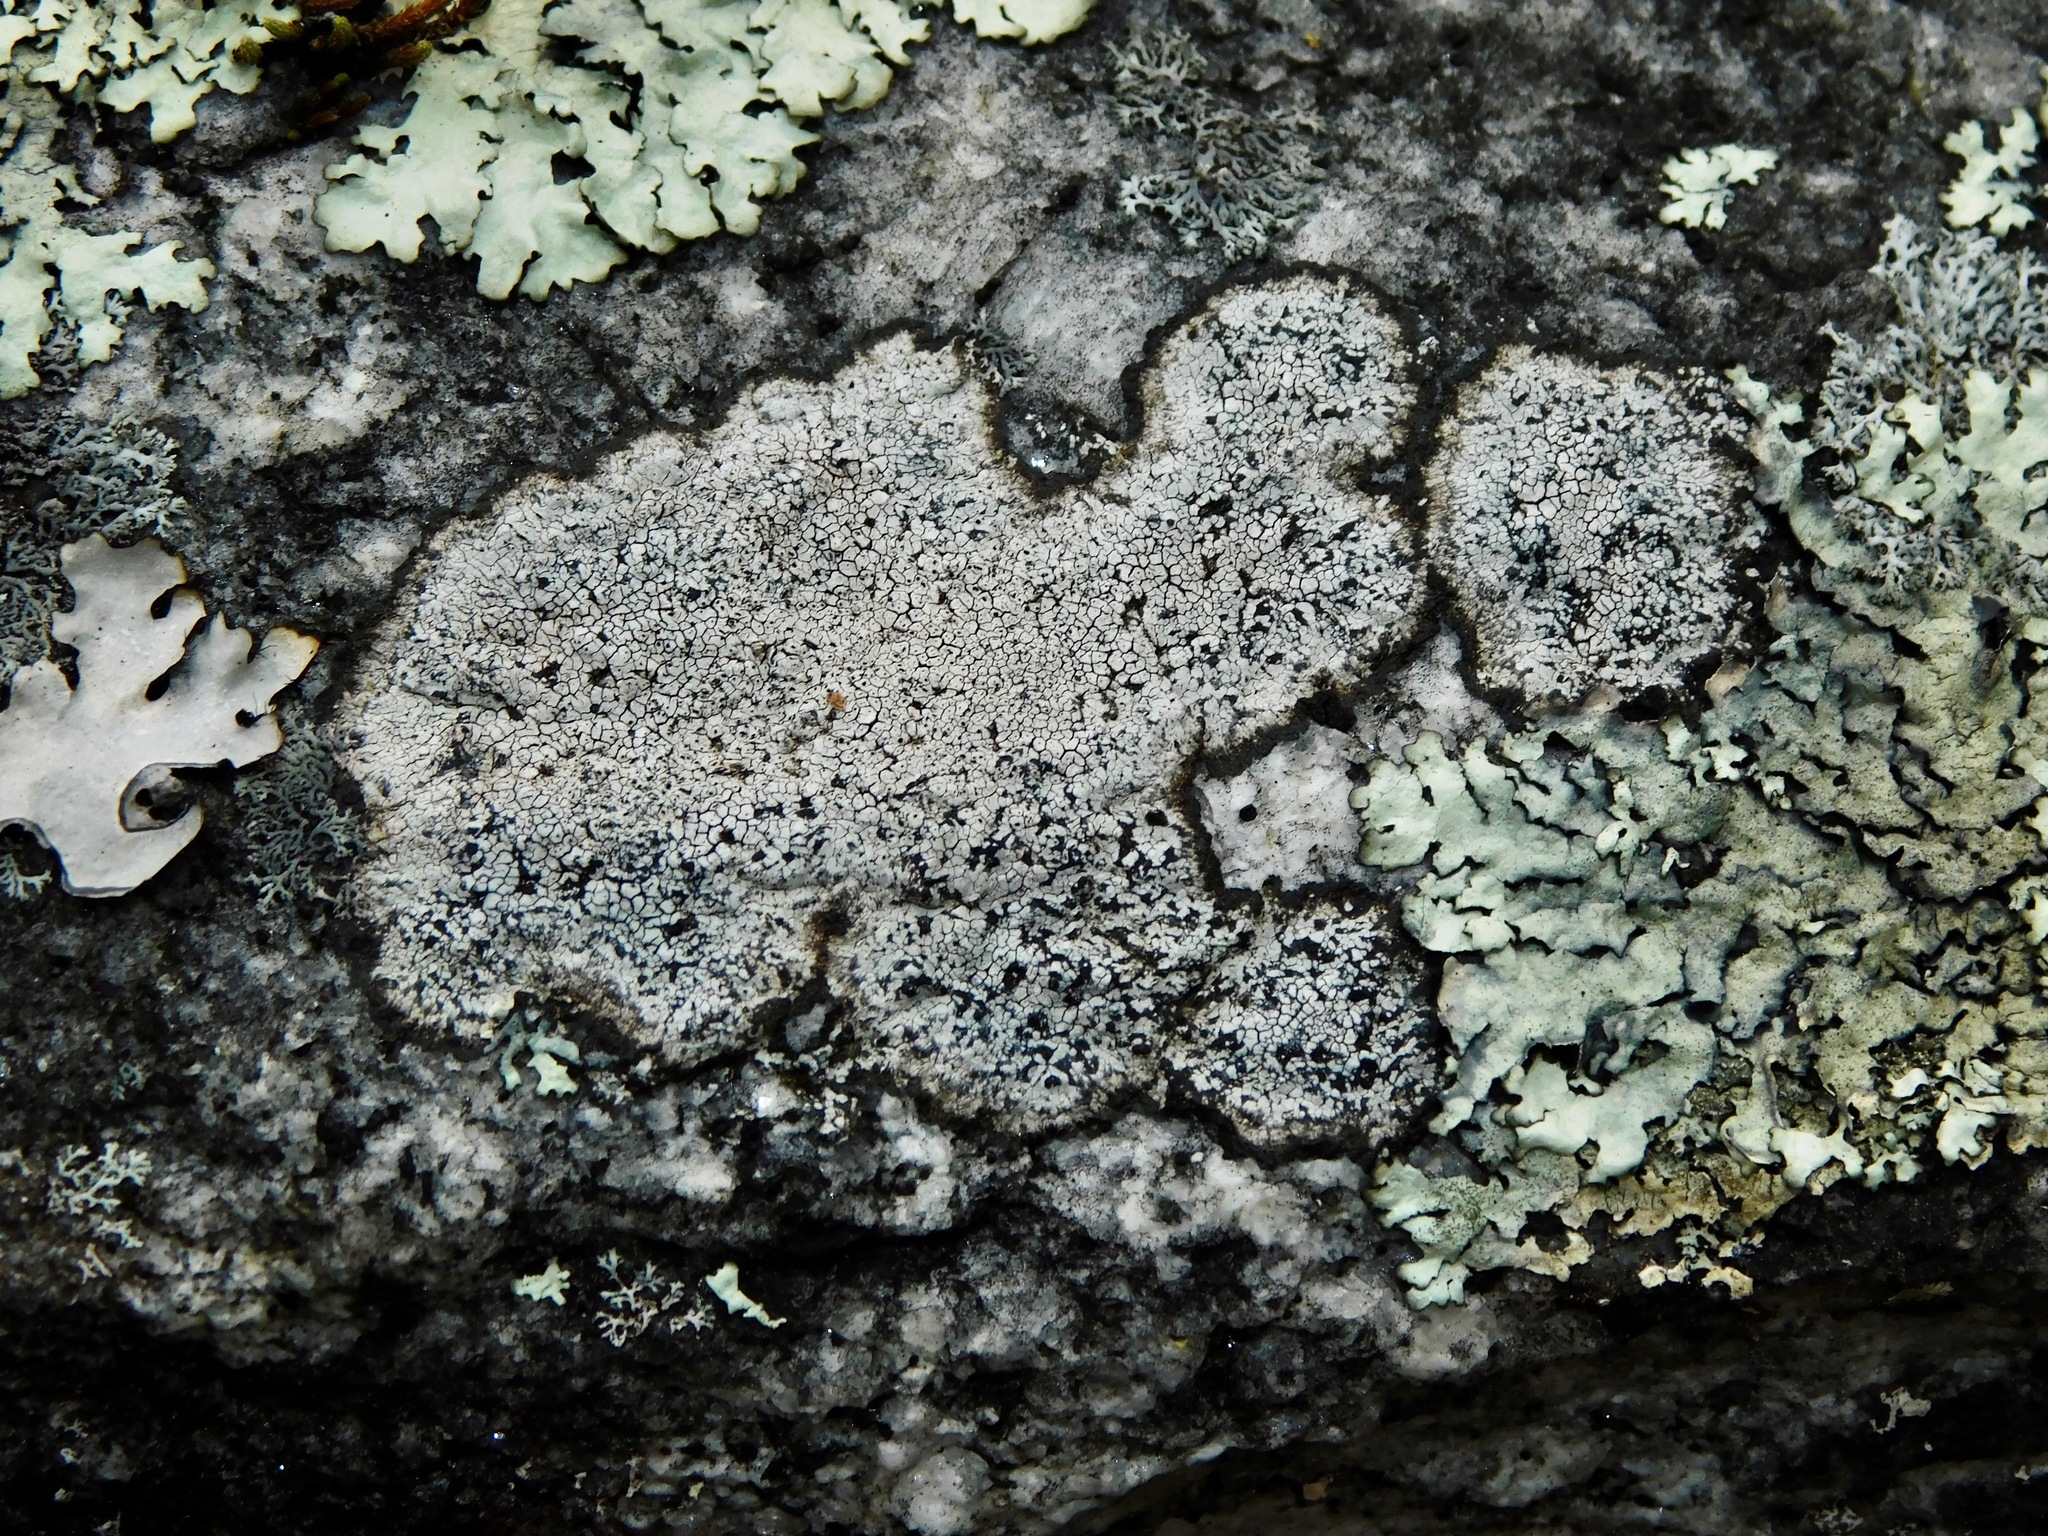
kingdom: Fungi
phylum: Ascomycota
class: Lecanoromycetes
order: Caliciales
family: Caliciaceae
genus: Buellia
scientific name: Buellia spuria
